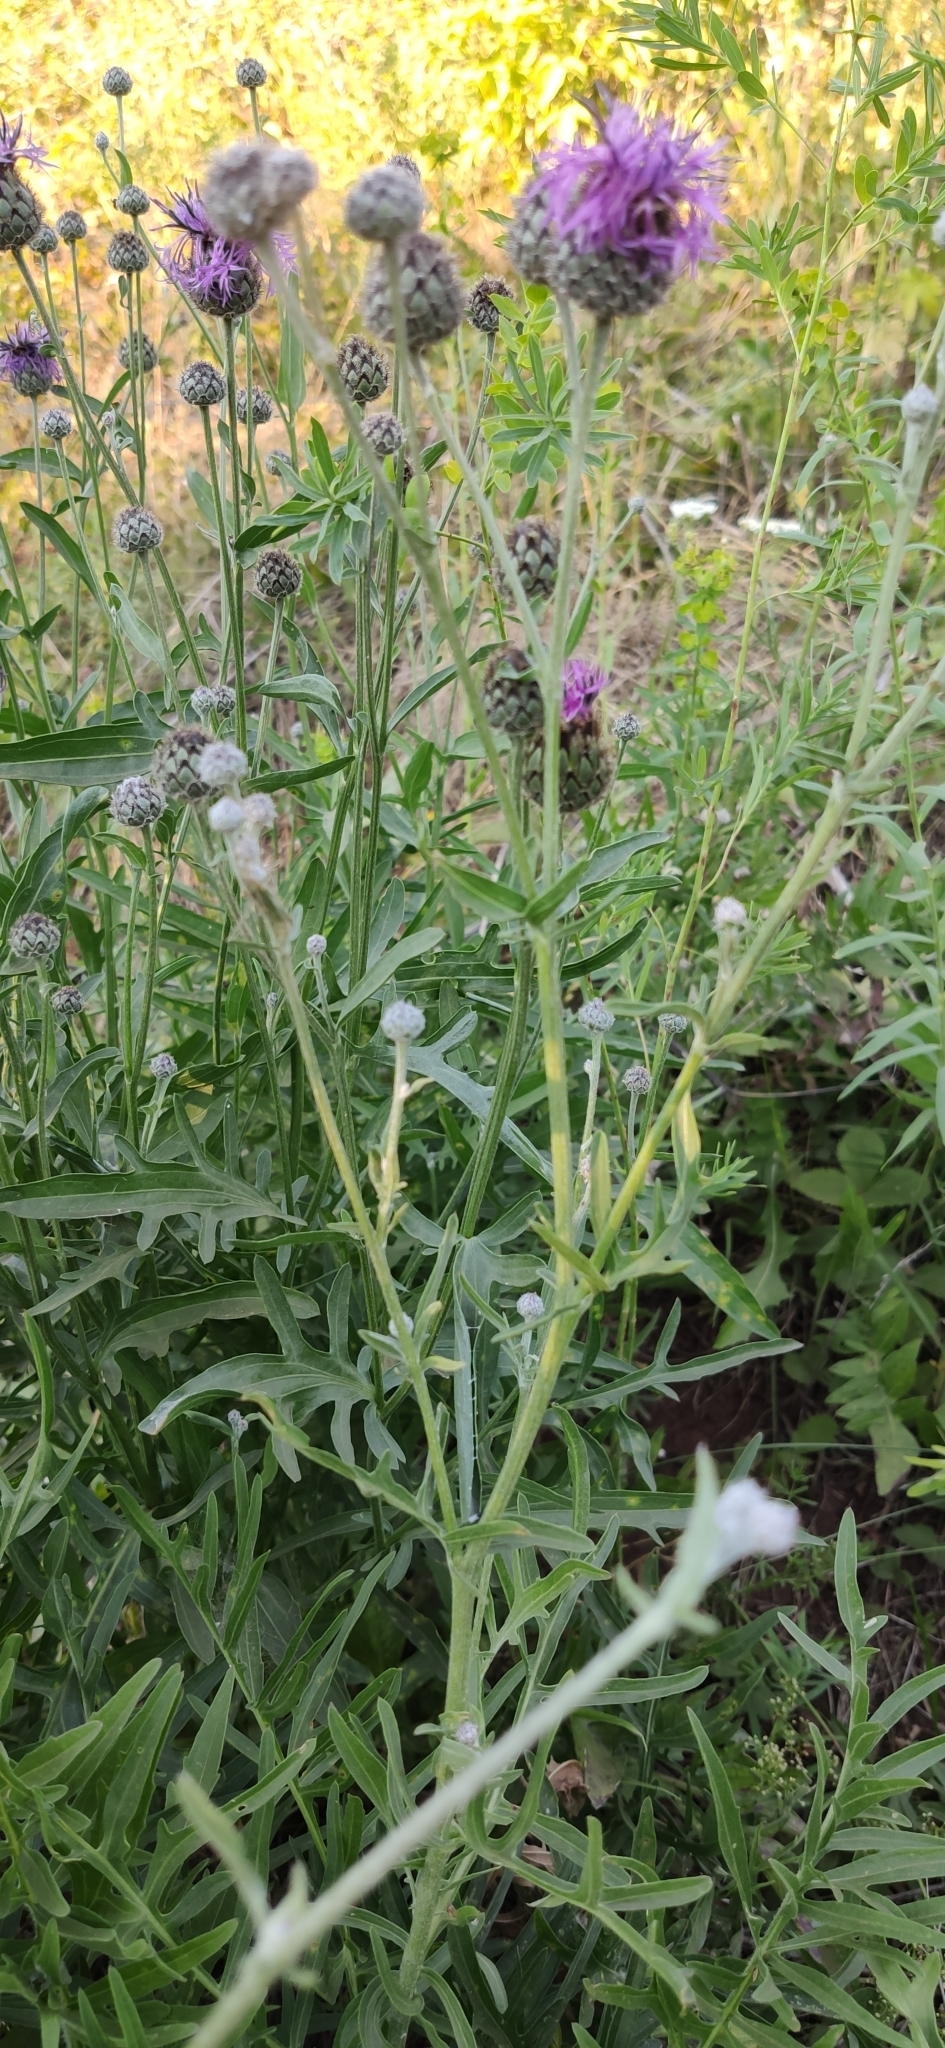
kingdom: Plantae
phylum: Tracheophyta
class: Magnoliopsida
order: Asterales
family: Asteraceae
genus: Centaurea
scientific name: Centaurea scabiosa
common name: Greater knapweed
